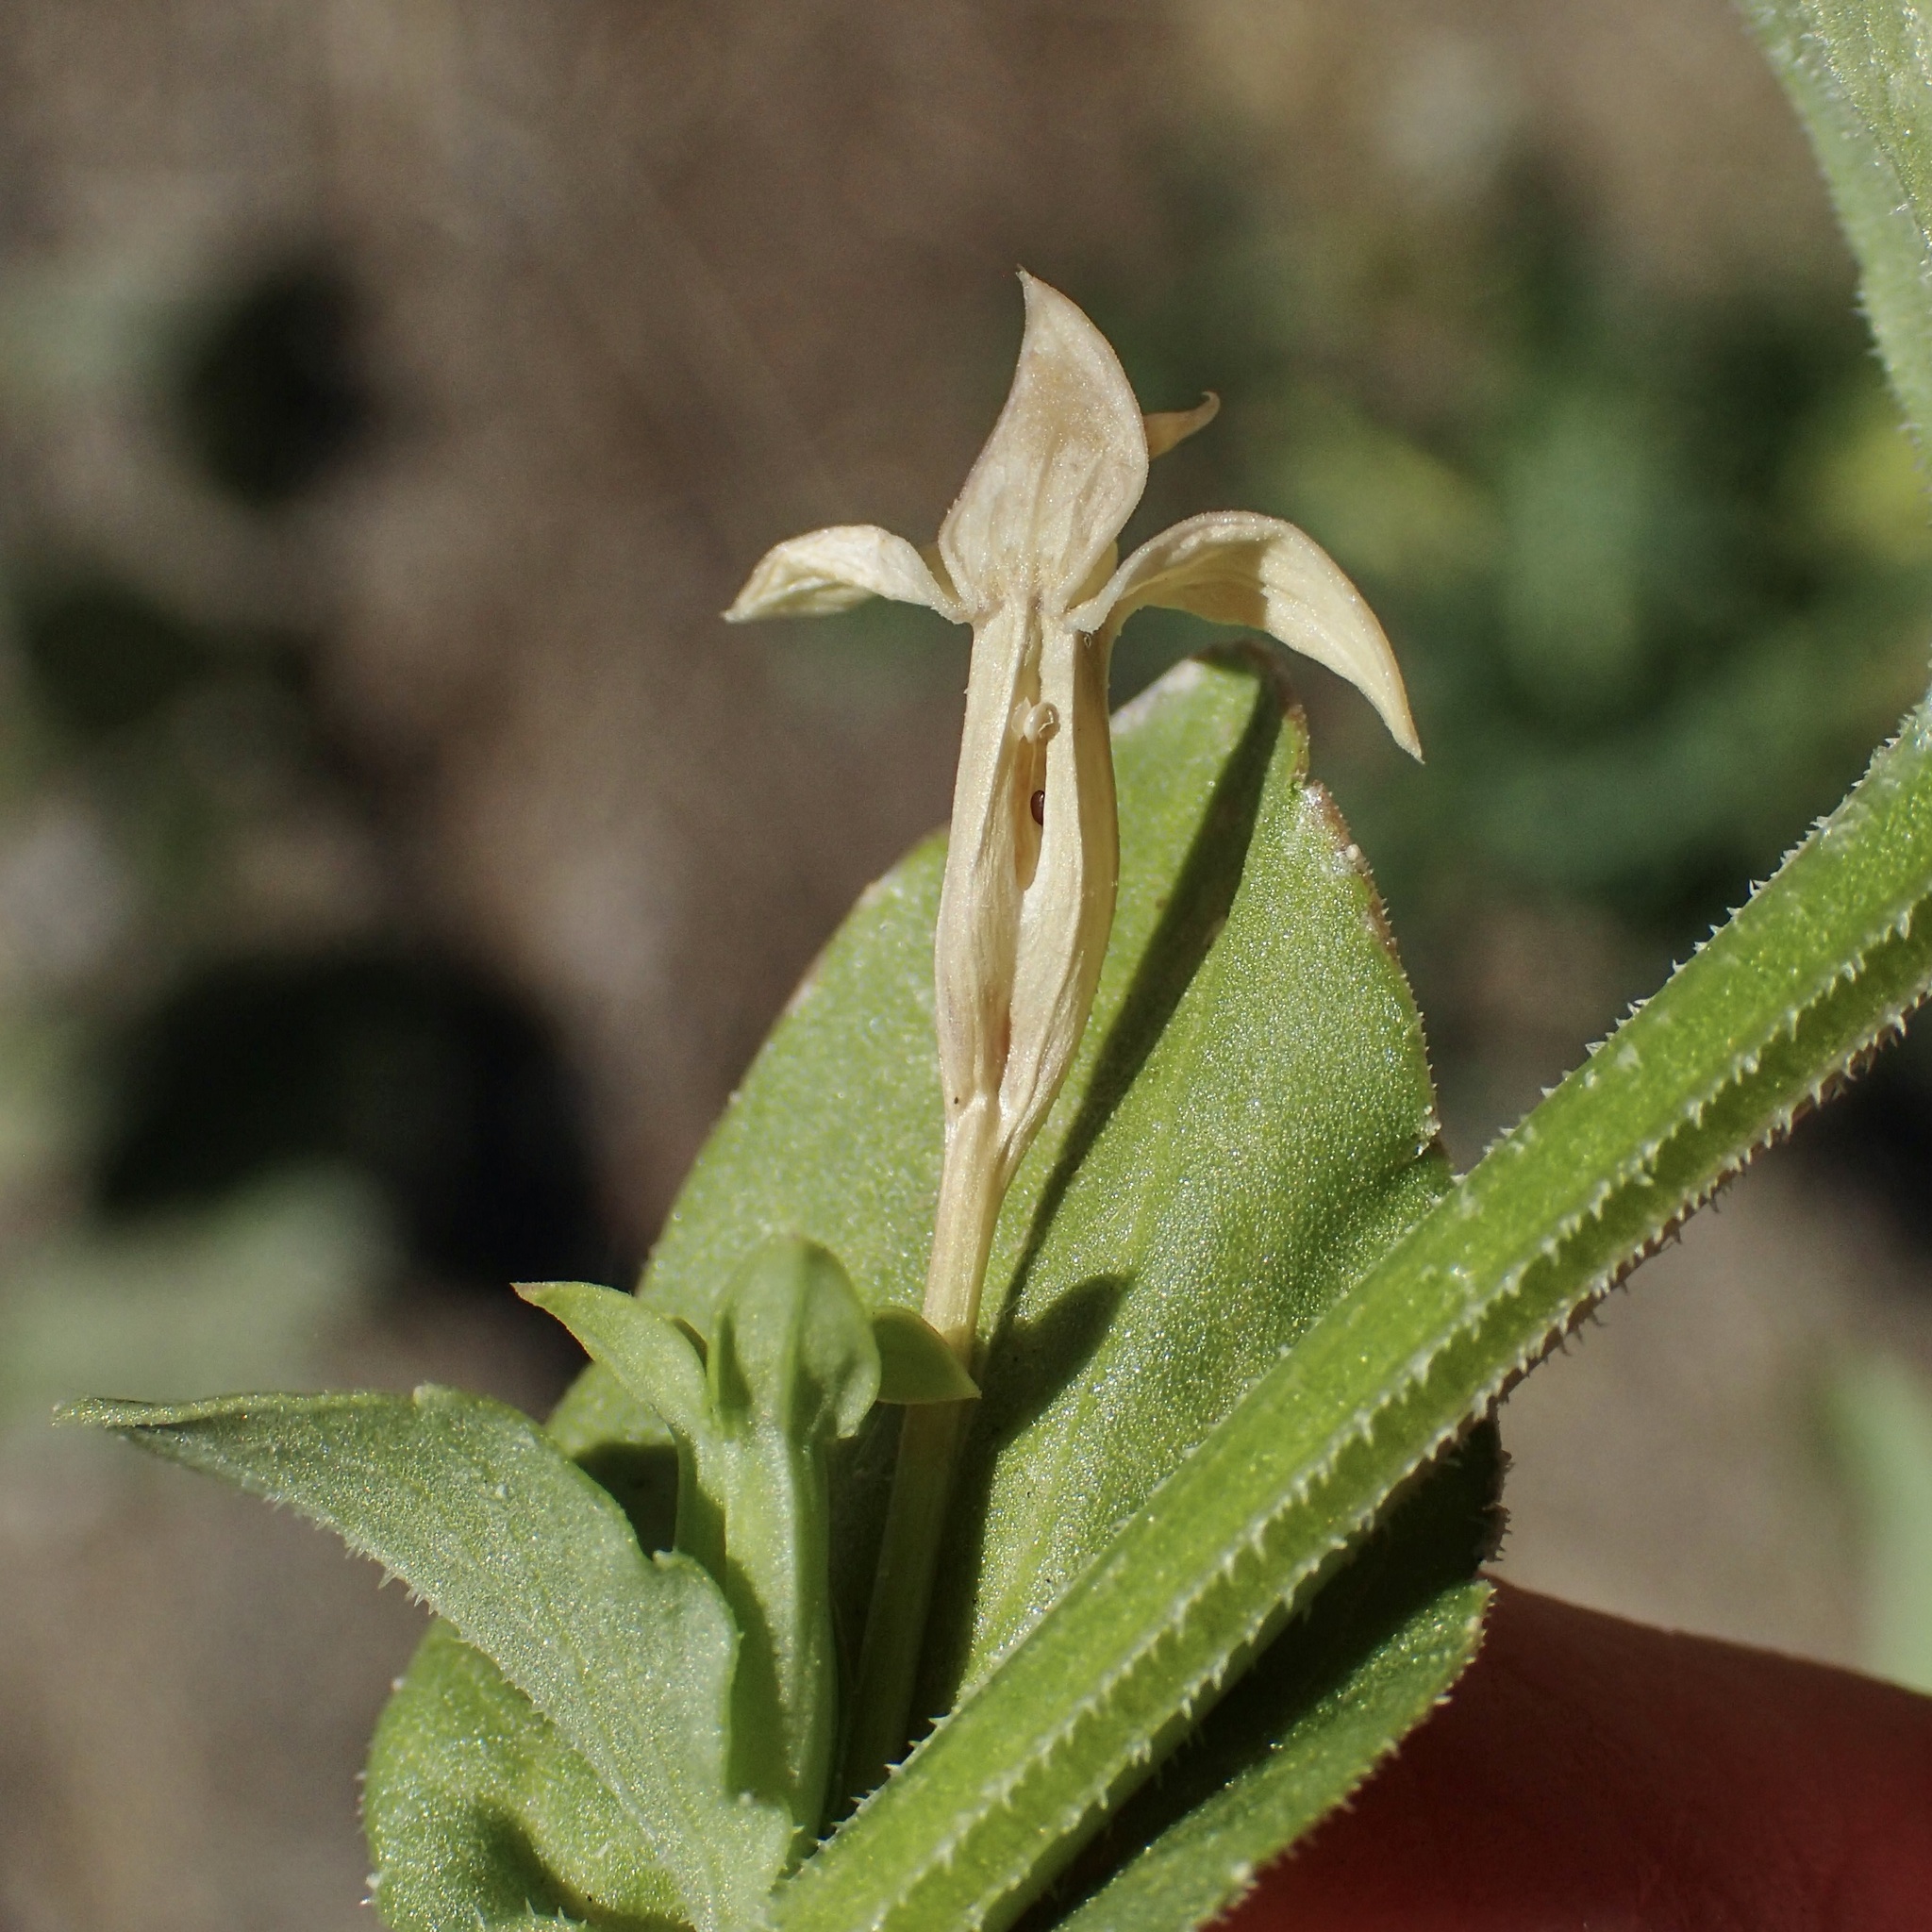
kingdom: Plantae
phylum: Tracheophyta
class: Magnoliopsida
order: Asterales
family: Campanulaceae
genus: Triodanis
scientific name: Triodanis holzingeri
